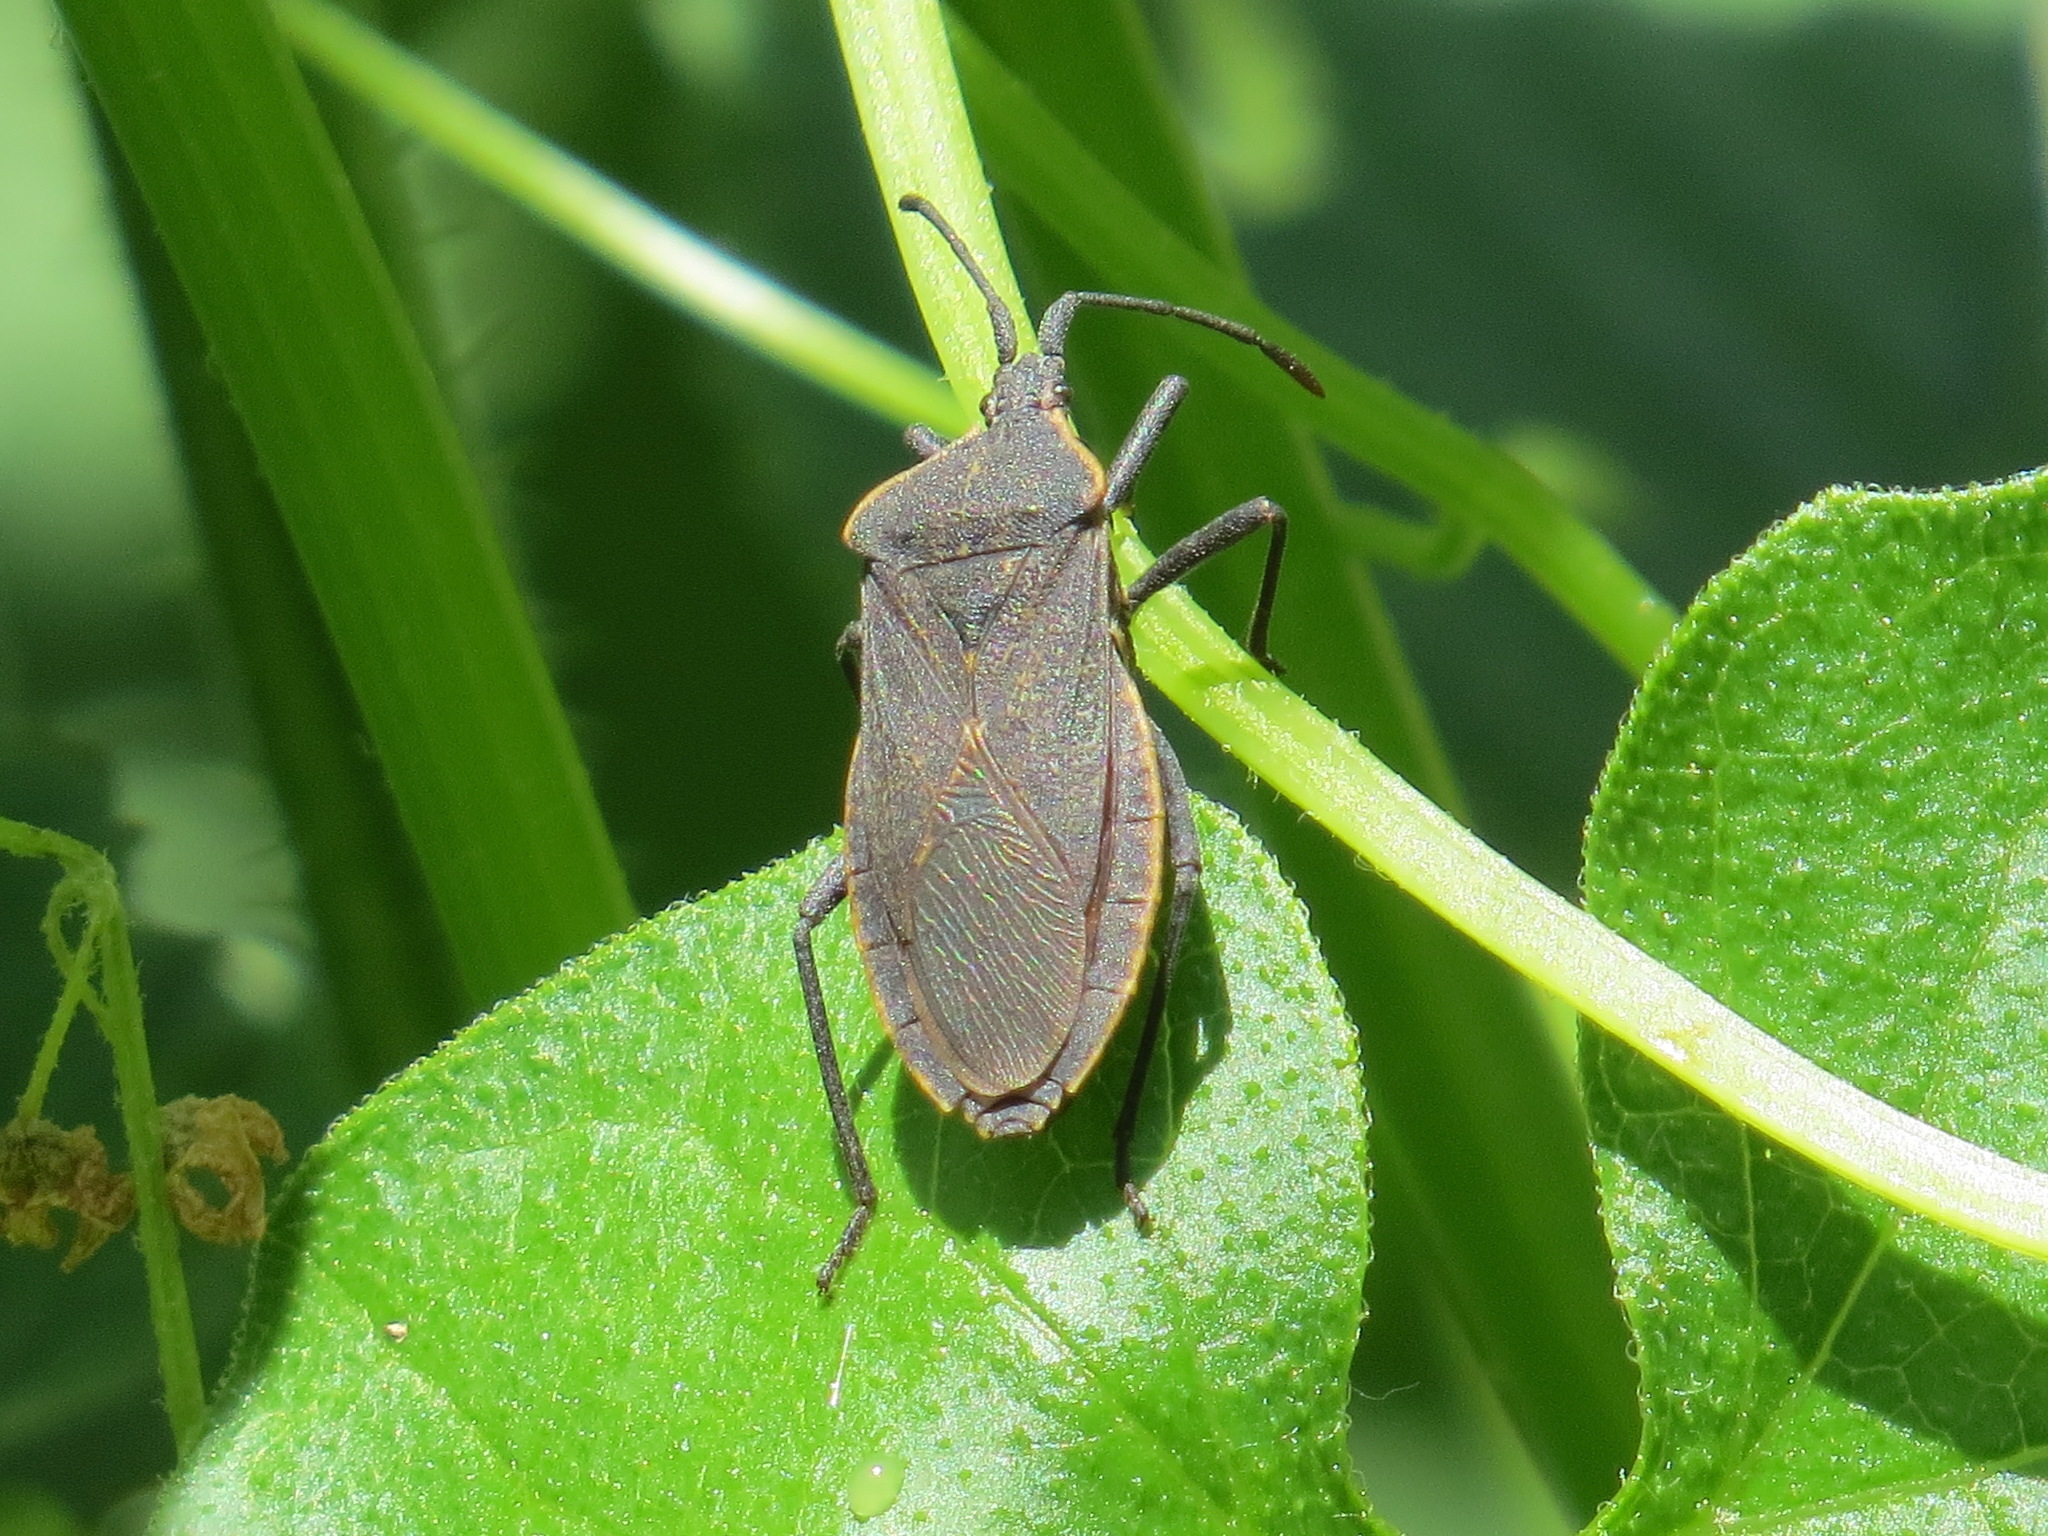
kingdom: Animalia
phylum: Arthropoda
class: Insecta
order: Hemiptera
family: Coreidae
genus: Anasa
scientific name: Anasa tristis
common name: Squash bug
